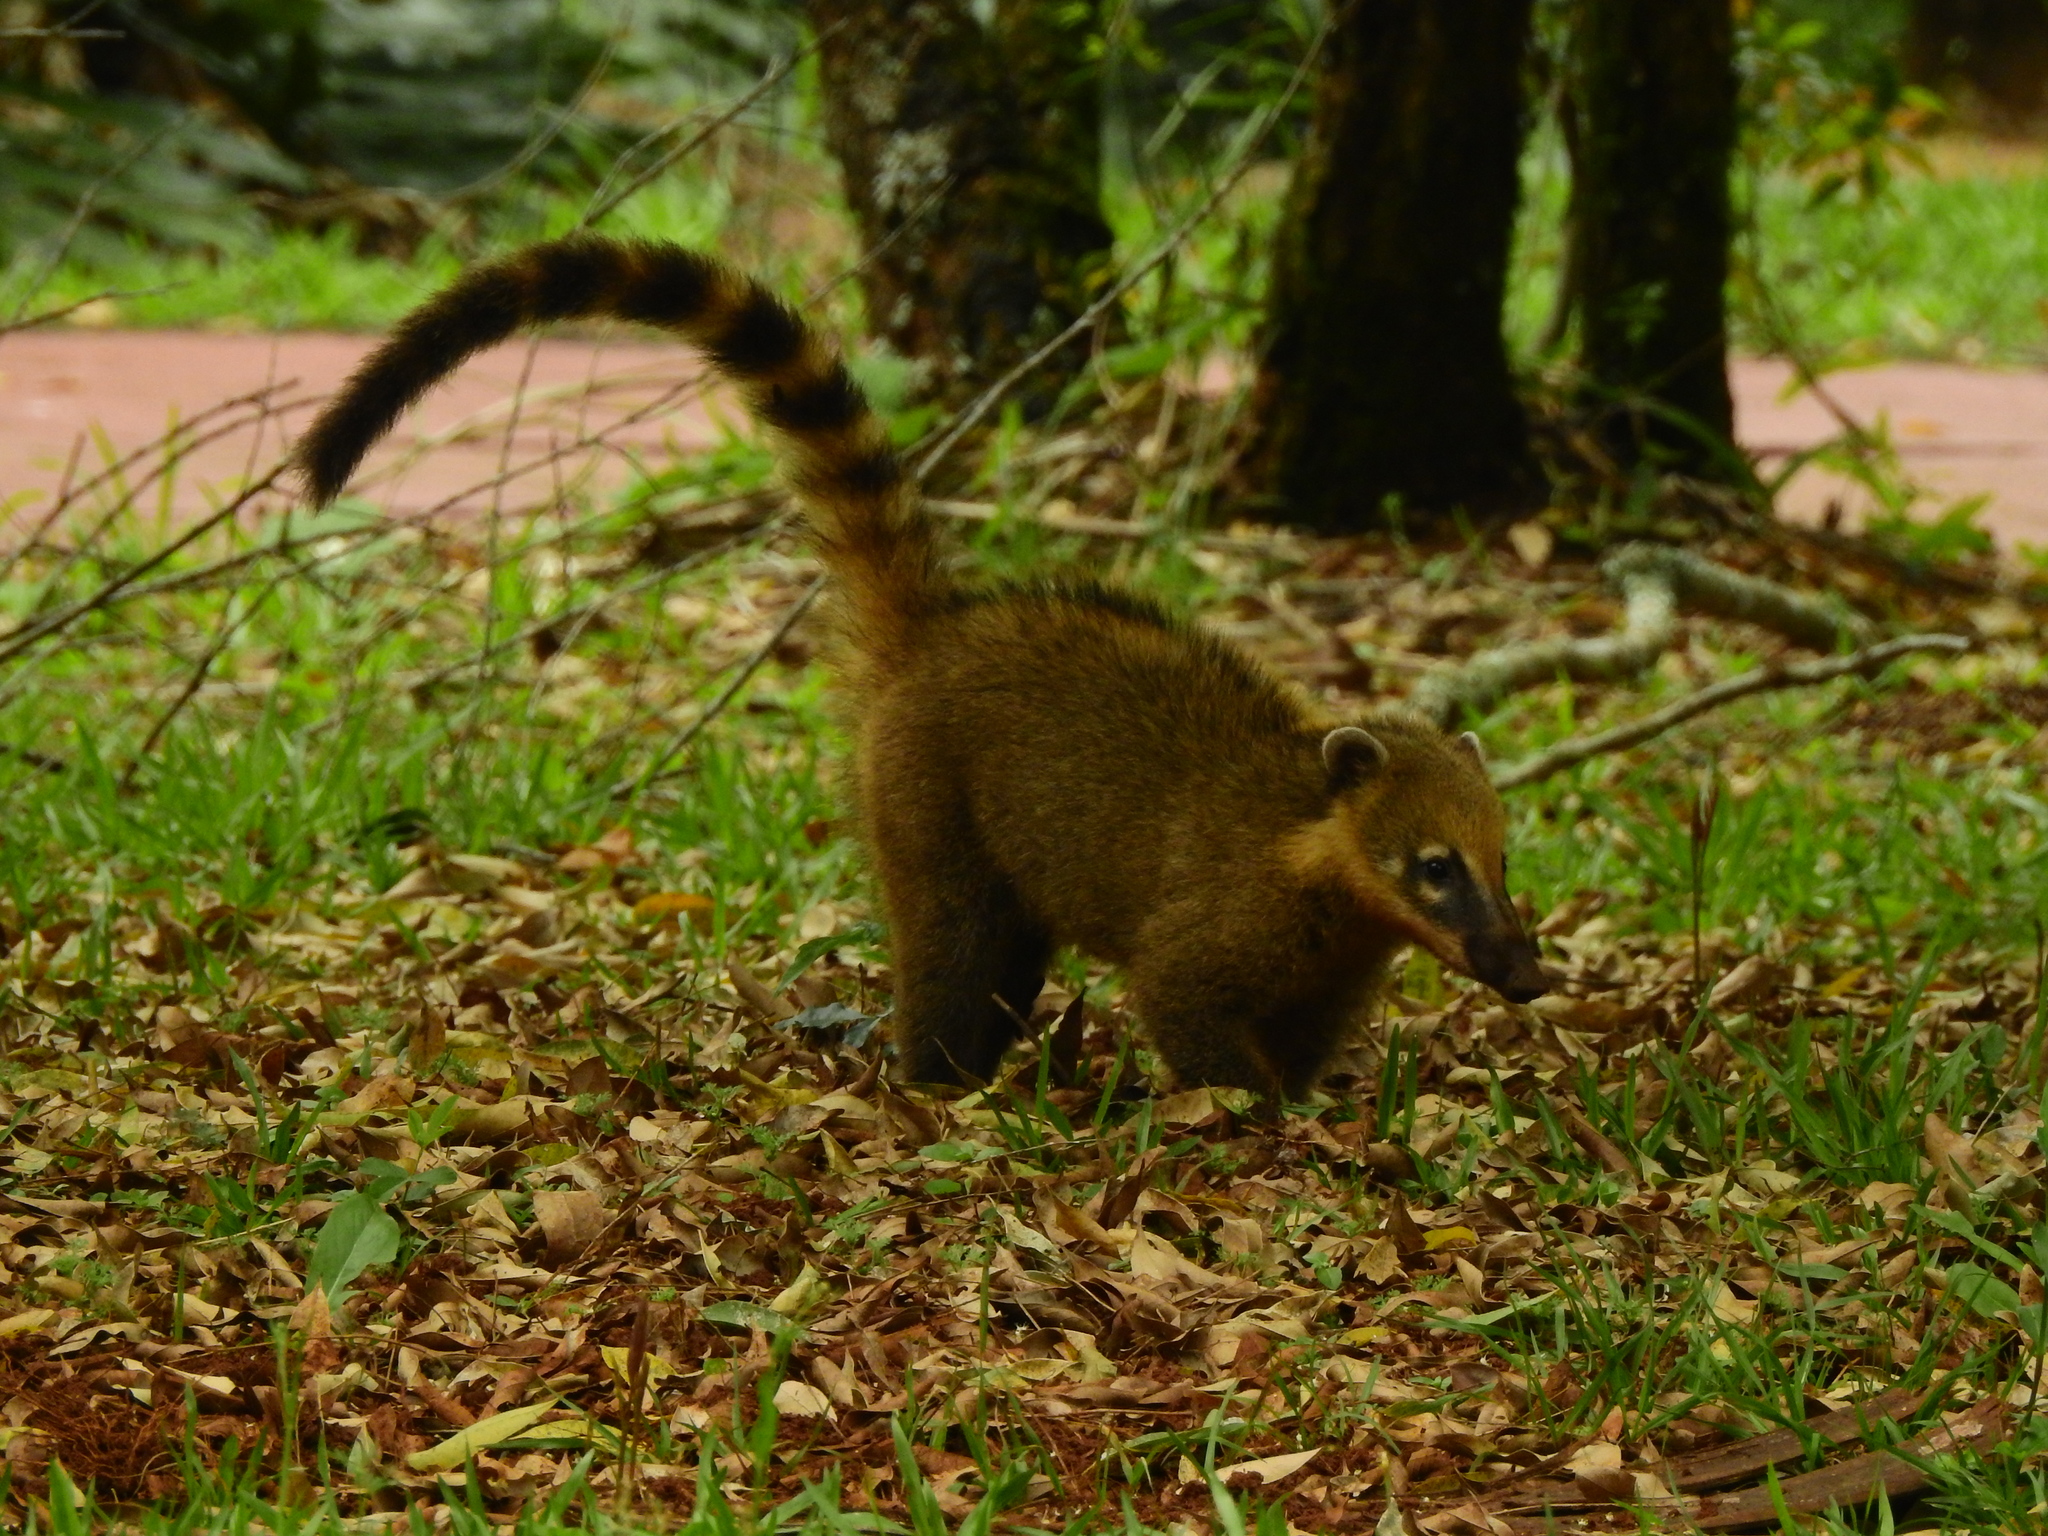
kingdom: Animalia
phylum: Chordata
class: Mammalia
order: Carnivora
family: Procyonidae
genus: Nasua
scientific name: Nasua nasua
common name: South american coati
